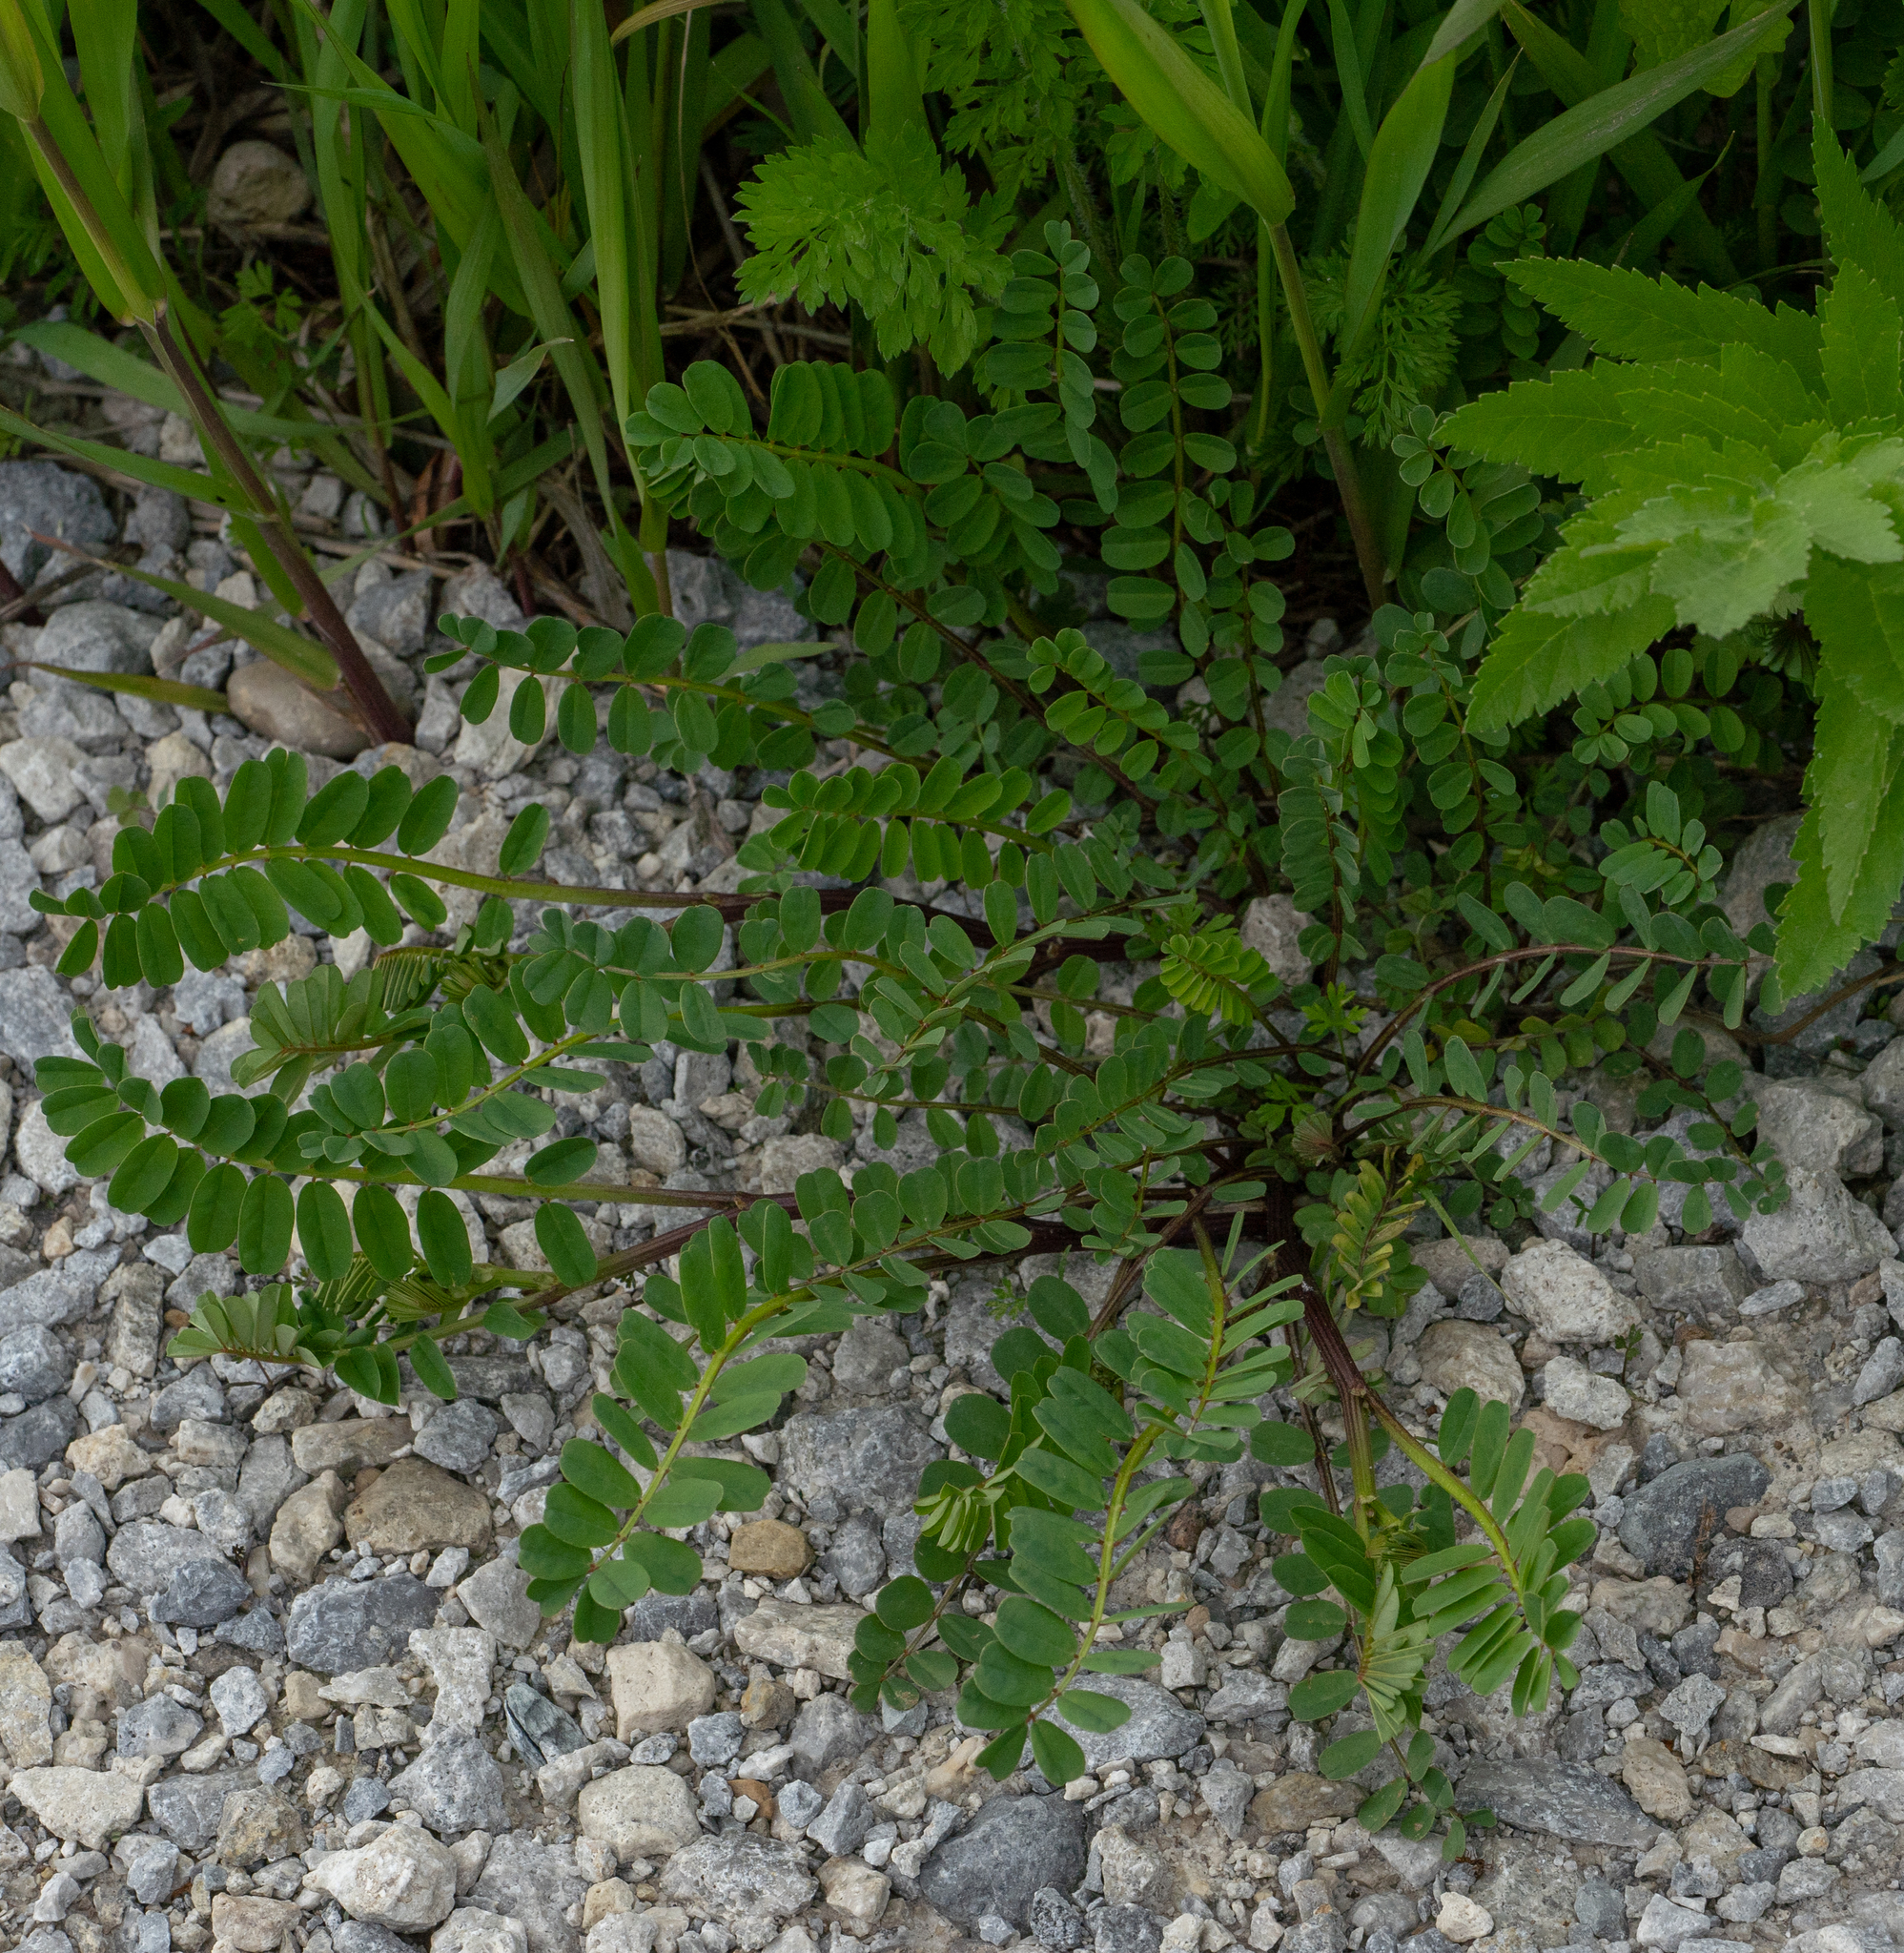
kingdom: Plantae
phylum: Tracheophyta
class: Magnoliopsida
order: Fabales
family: Fabaceae
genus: Coronilla
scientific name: Coronilla varia
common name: Crownvetch
